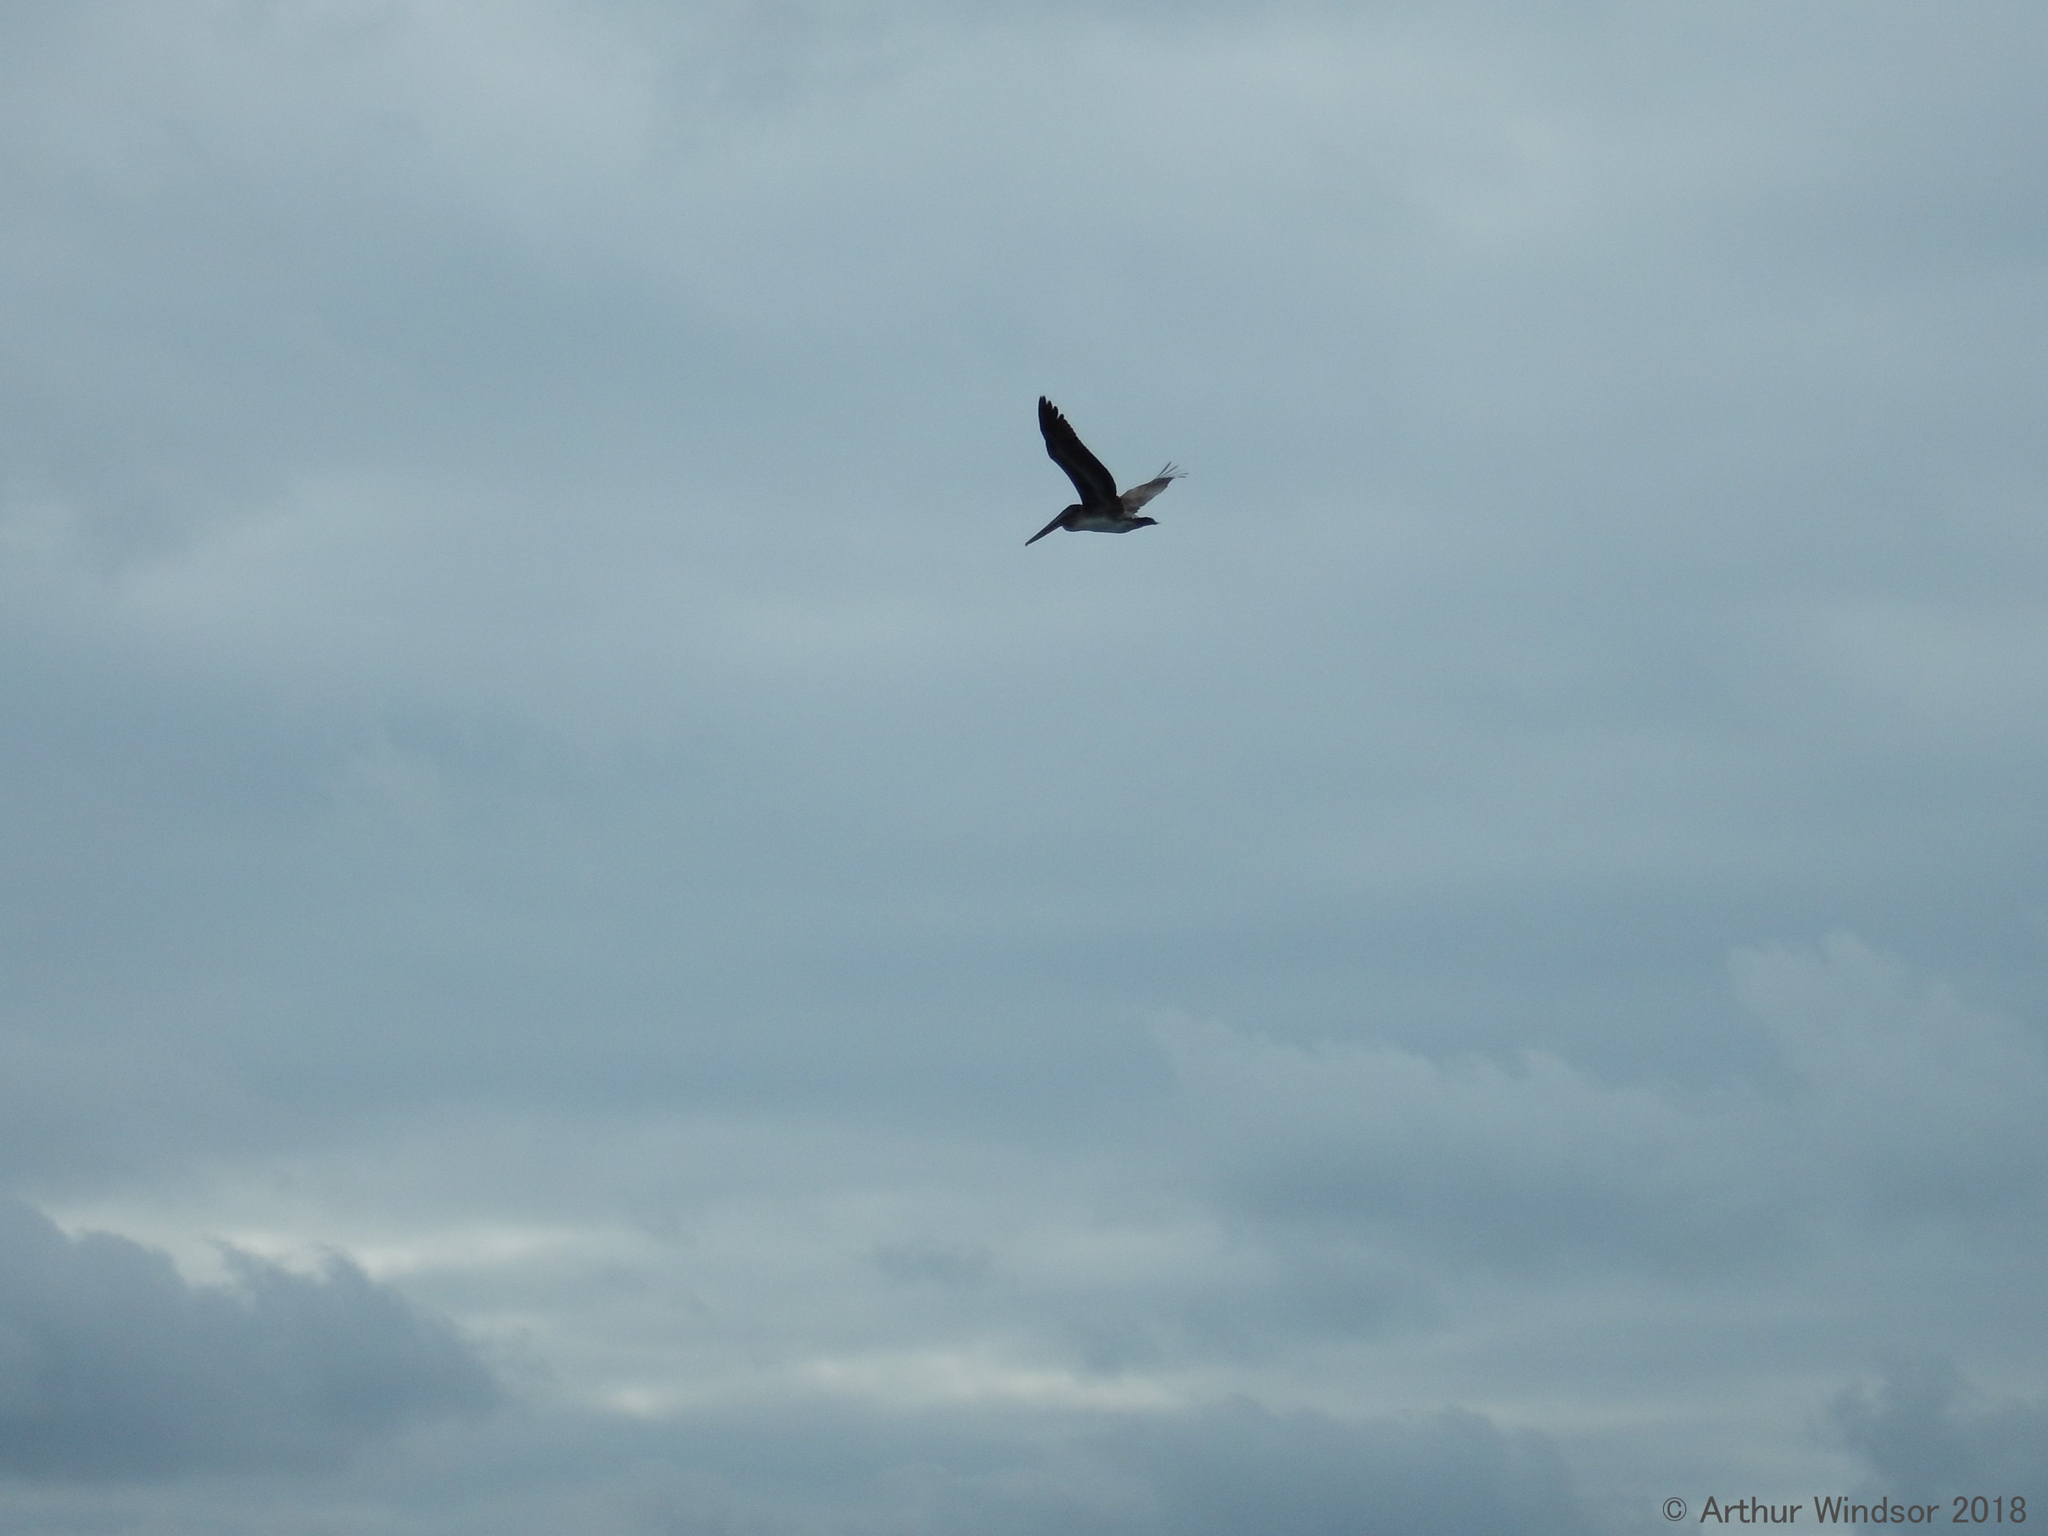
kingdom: Animalia
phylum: Chordata
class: Aves
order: Pelecaniformes
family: Pelecanidae
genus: Pelecanus
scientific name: Pelecanus occidentalis
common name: Brown pelican
